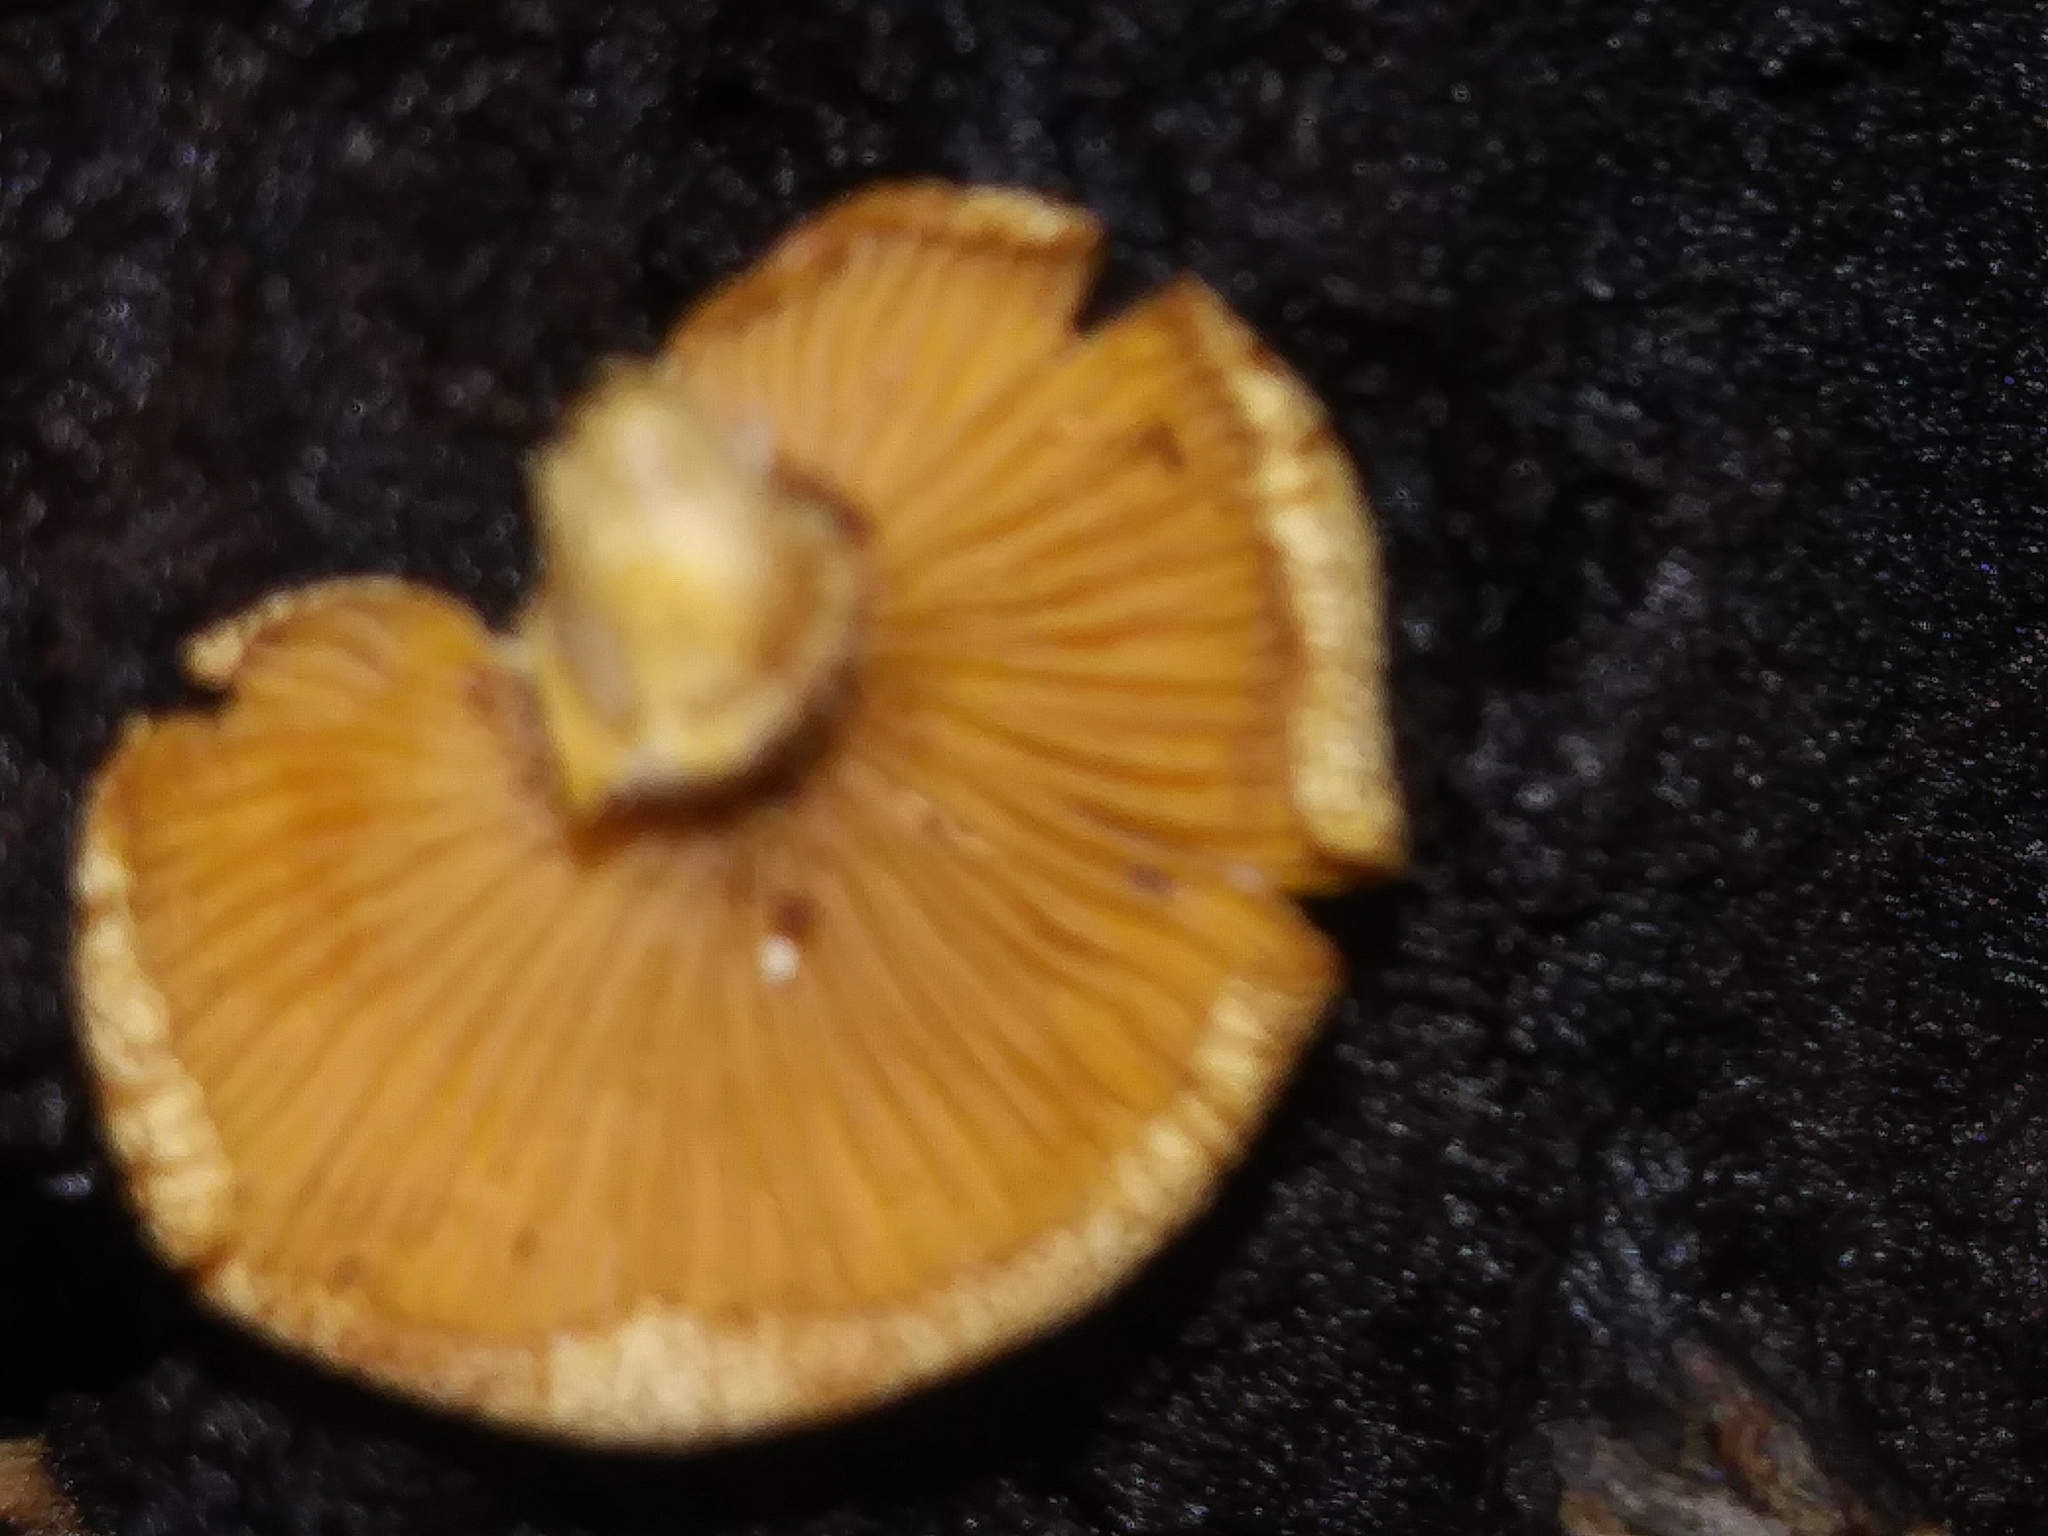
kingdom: Fungi
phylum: Basidiomycota
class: Agaricomycetes
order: Agaricales
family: Mycenaceae
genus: Panellus
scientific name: Panellus stipticus
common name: Bitter oysterling
